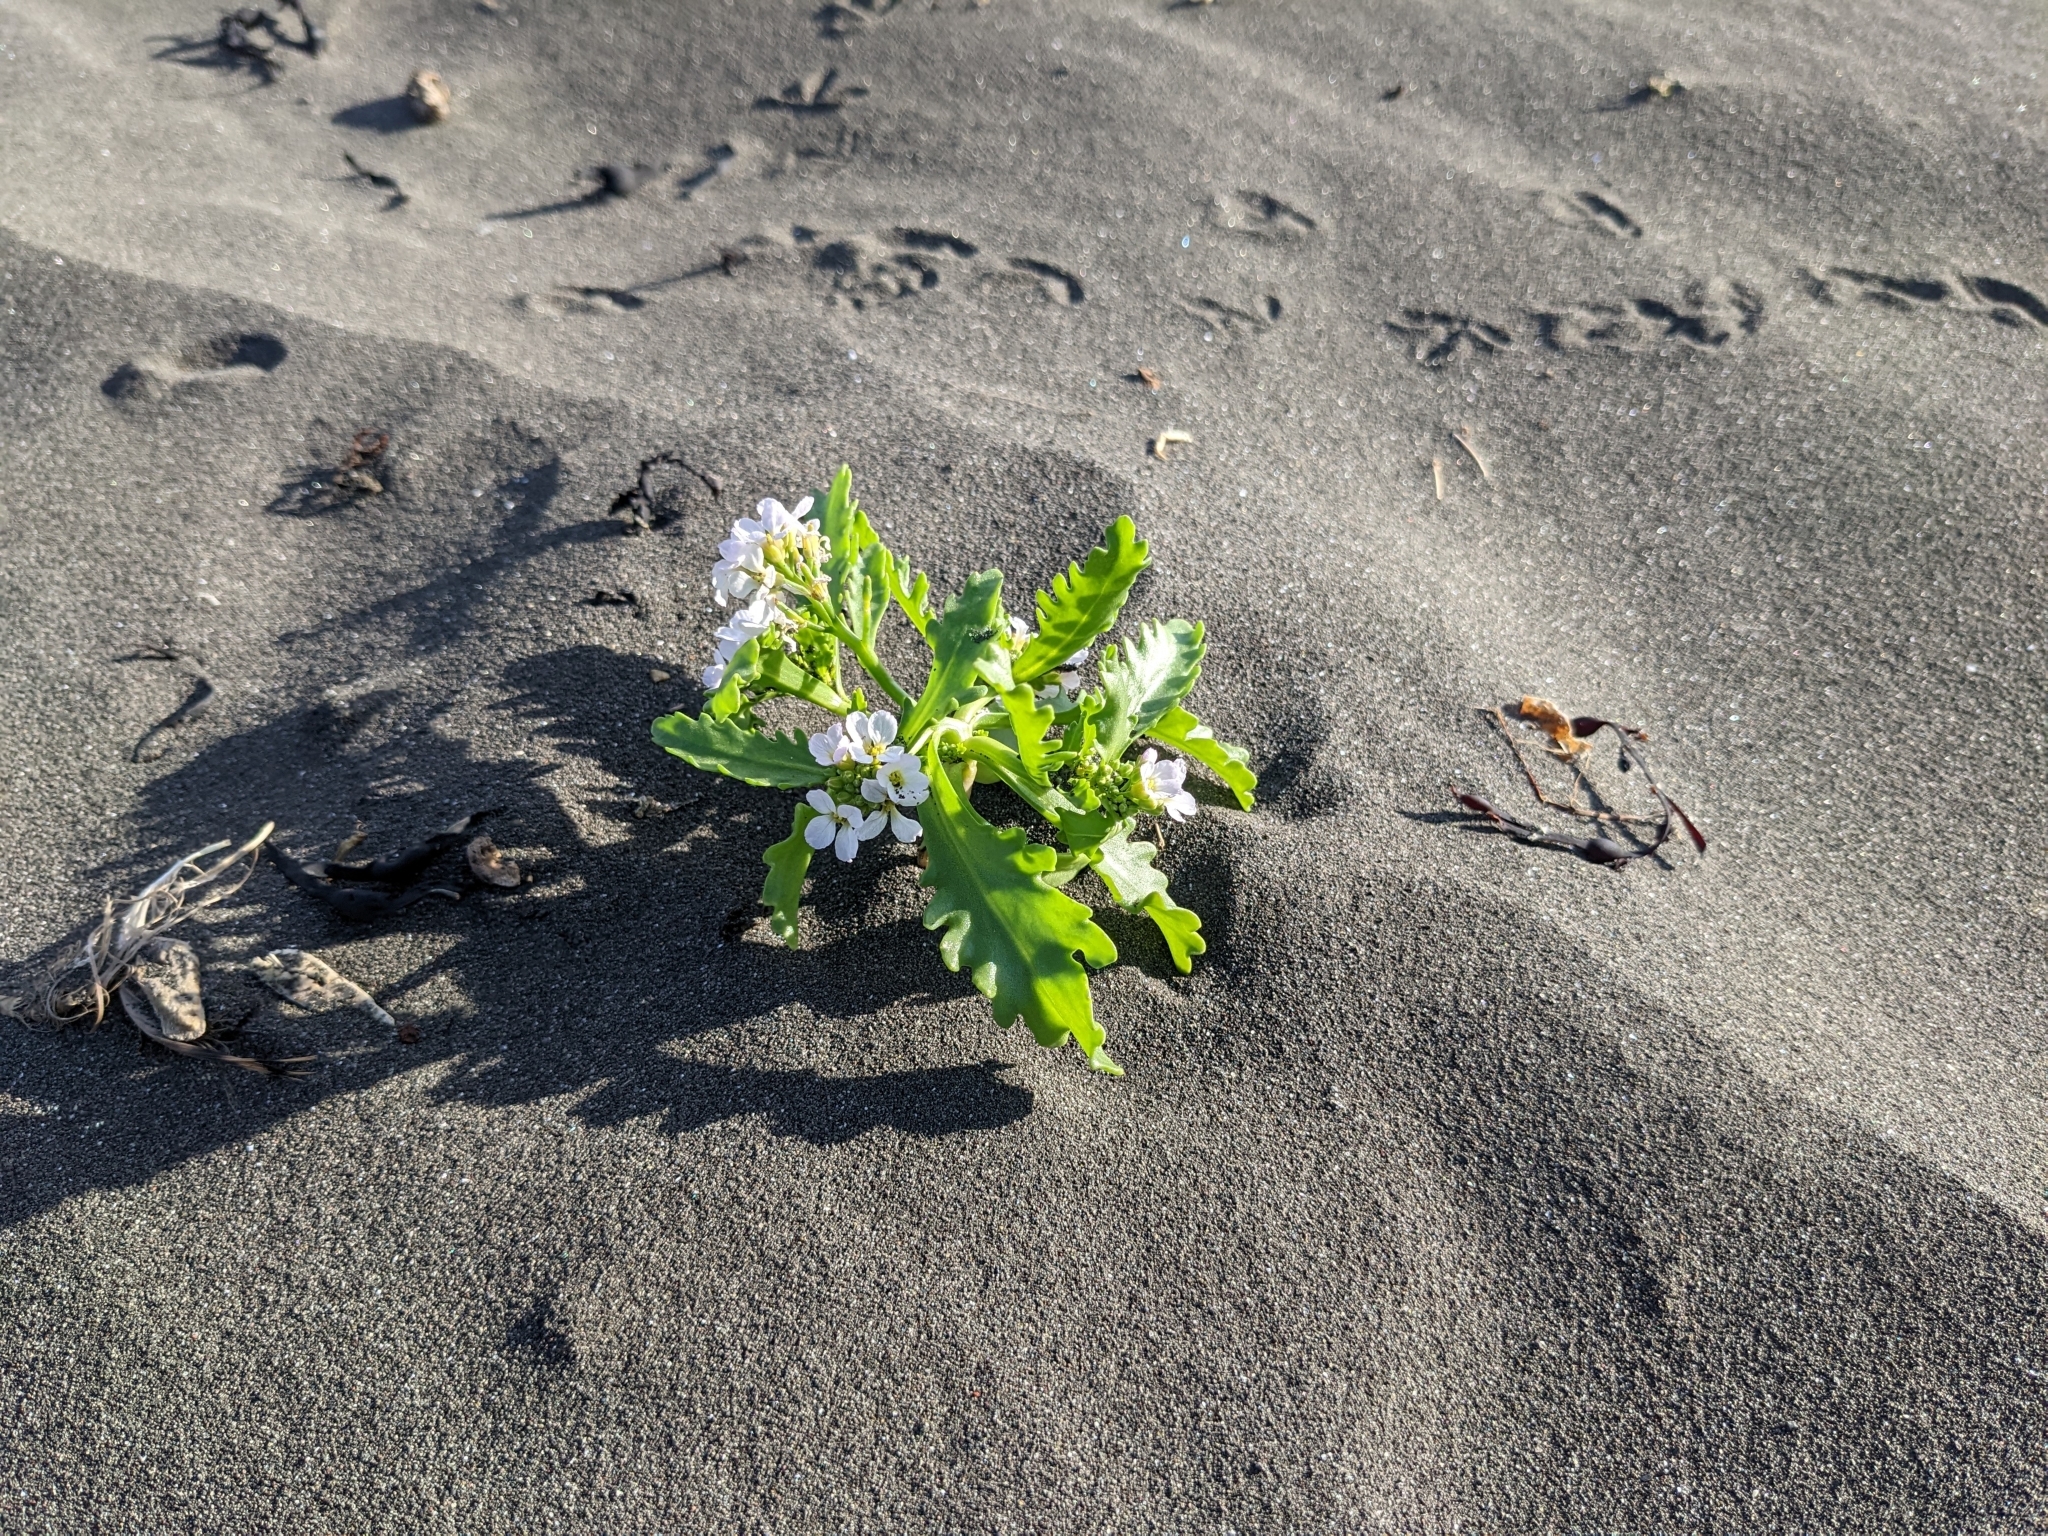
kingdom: Plantae
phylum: Tracheophyta
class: Magnoliopsida
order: Brassicales
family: Brassicaceae
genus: Cakile
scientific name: Cakile arctica
